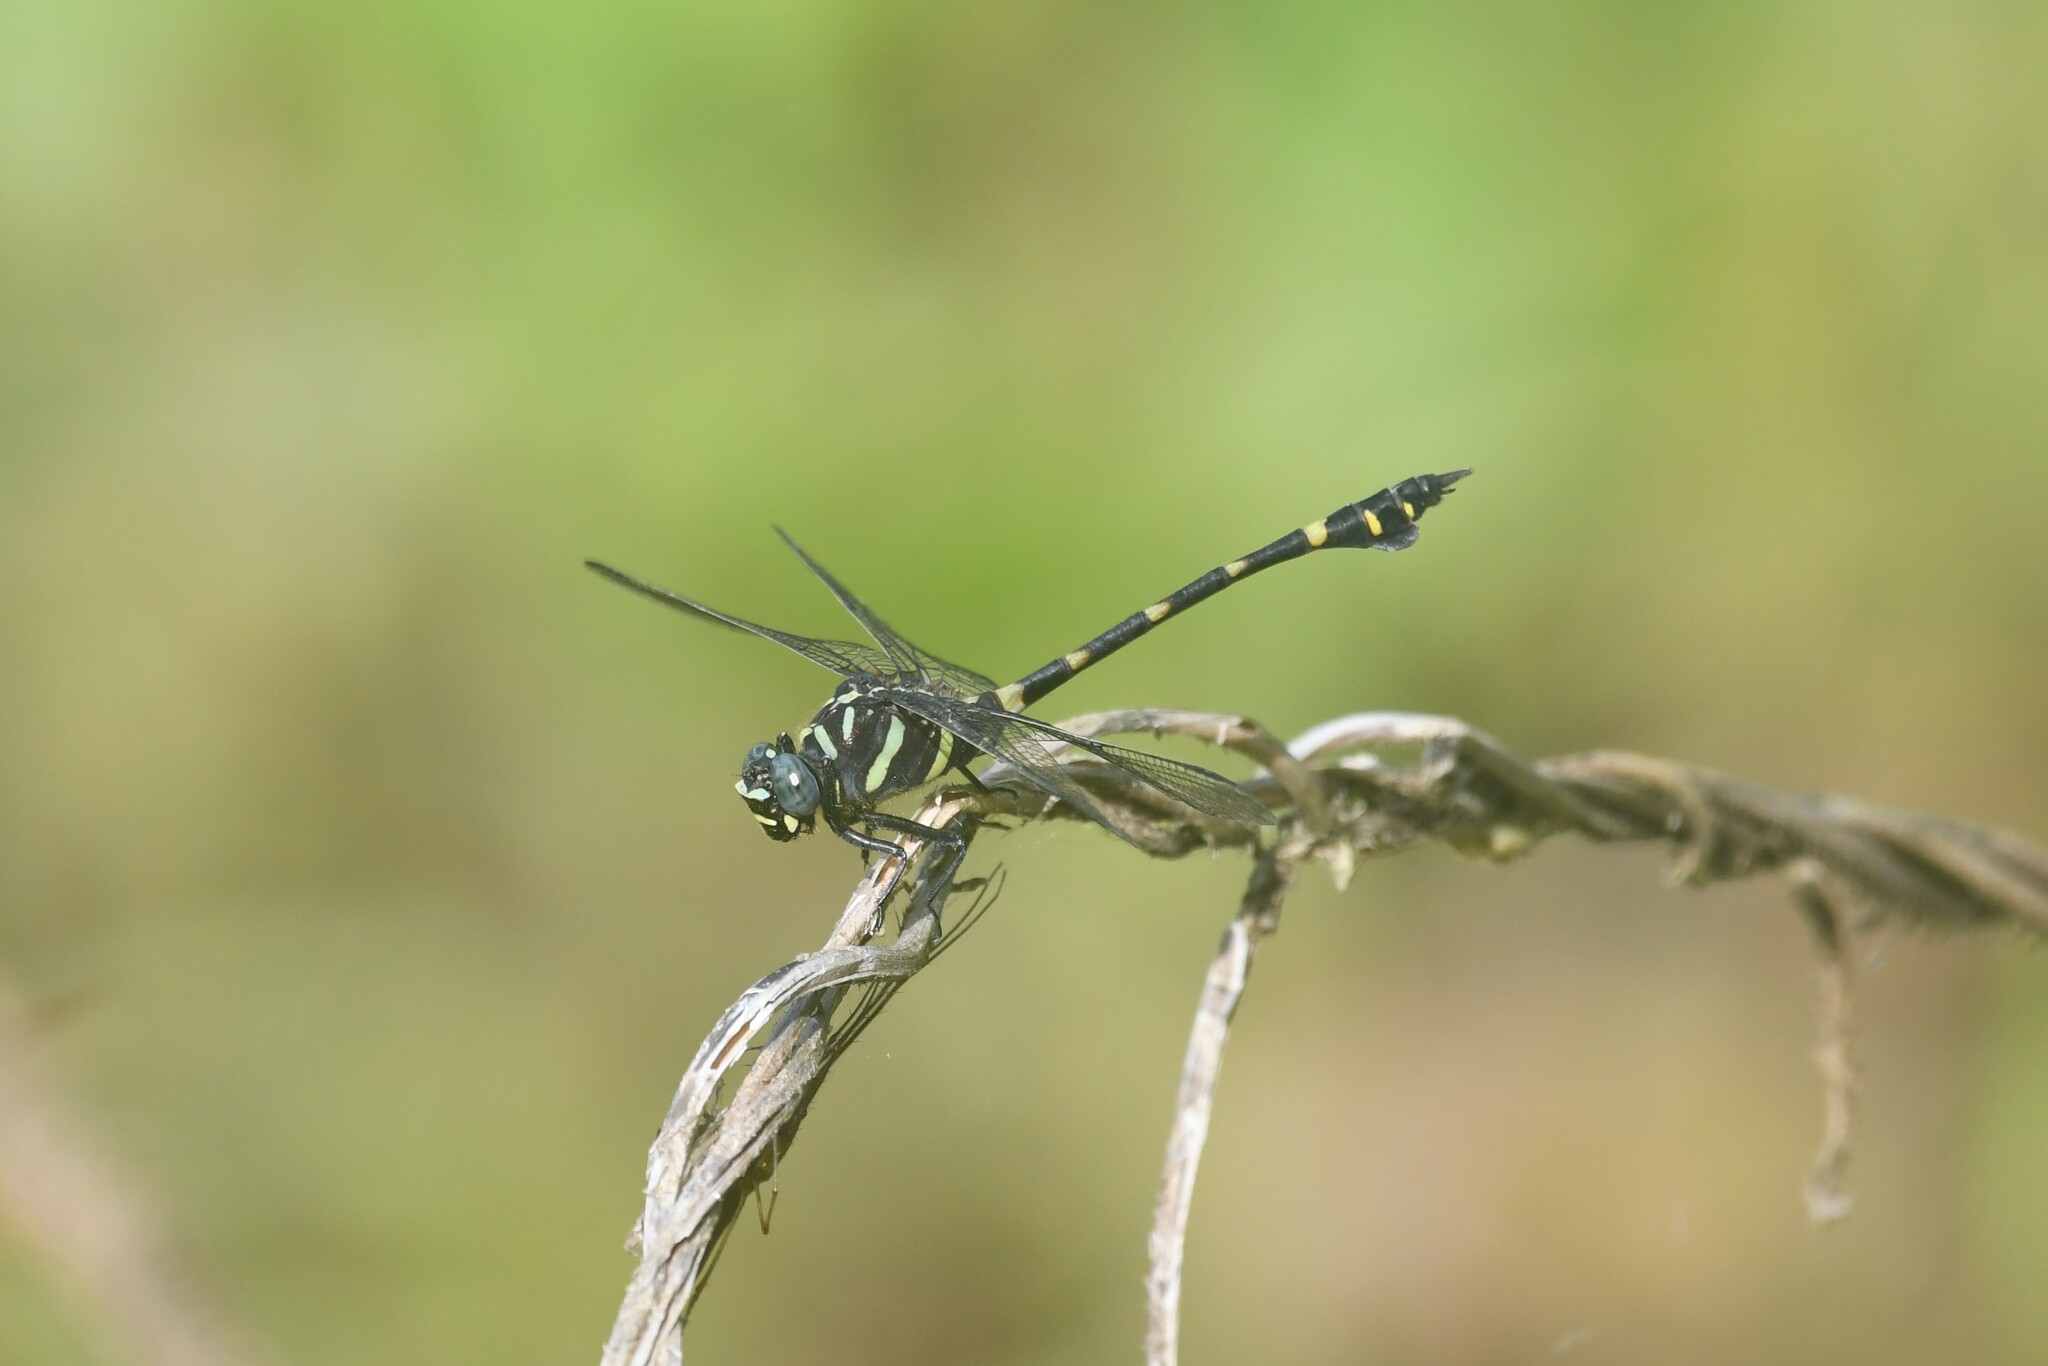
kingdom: Animalia
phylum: Arthropoda
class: Insecta
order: Odonata
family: Gomphidae
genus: Ictinogomphus
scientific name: Ictinogomphus decoratus
